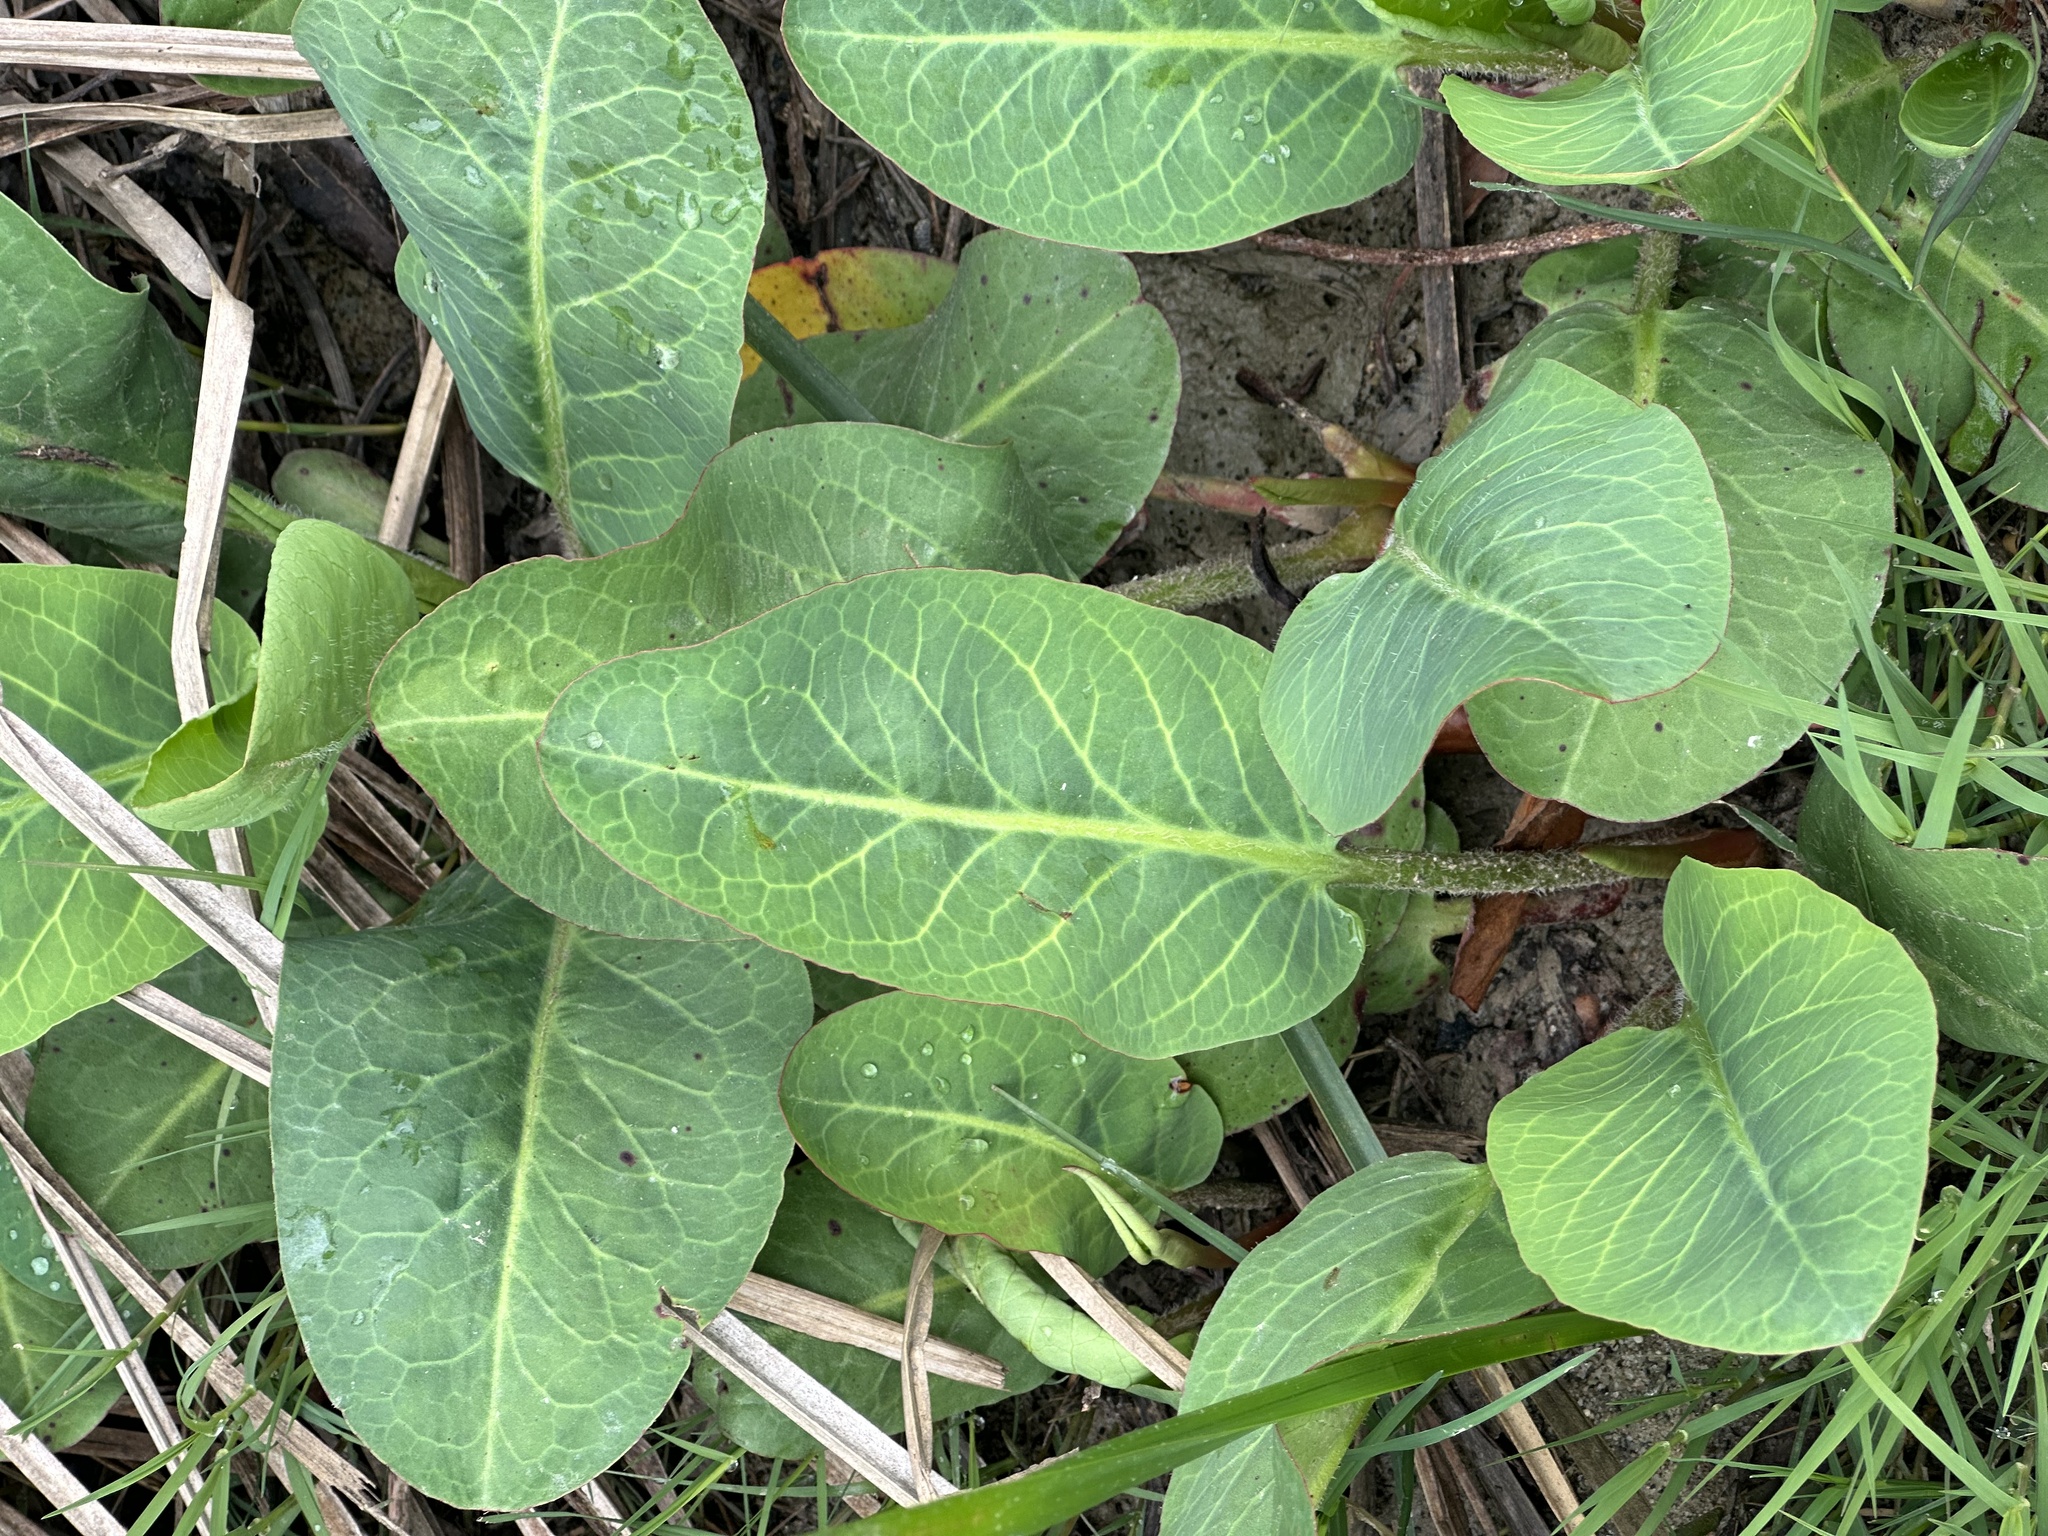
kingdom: Plantae
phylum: Tracheophyta
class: Magnoliopsida
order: Piperales
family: Saururaceae
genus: Anemopsis
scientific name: Anemopsis californica
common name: Apache-beads
